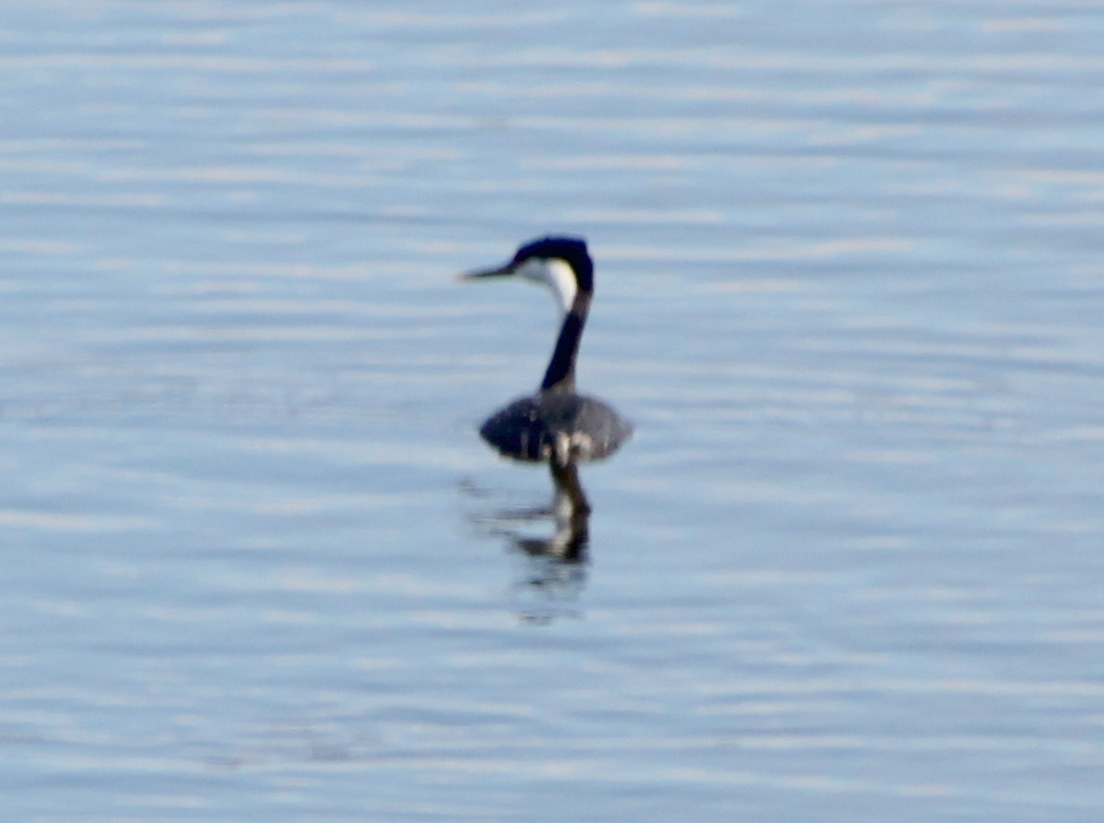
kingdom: Animalia
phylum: Chordata
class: Aves
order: Podicipediformes
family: Podicipedidae
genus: Aechmophorus
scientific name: Aechmophorus occidentalis
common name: Western grebe
